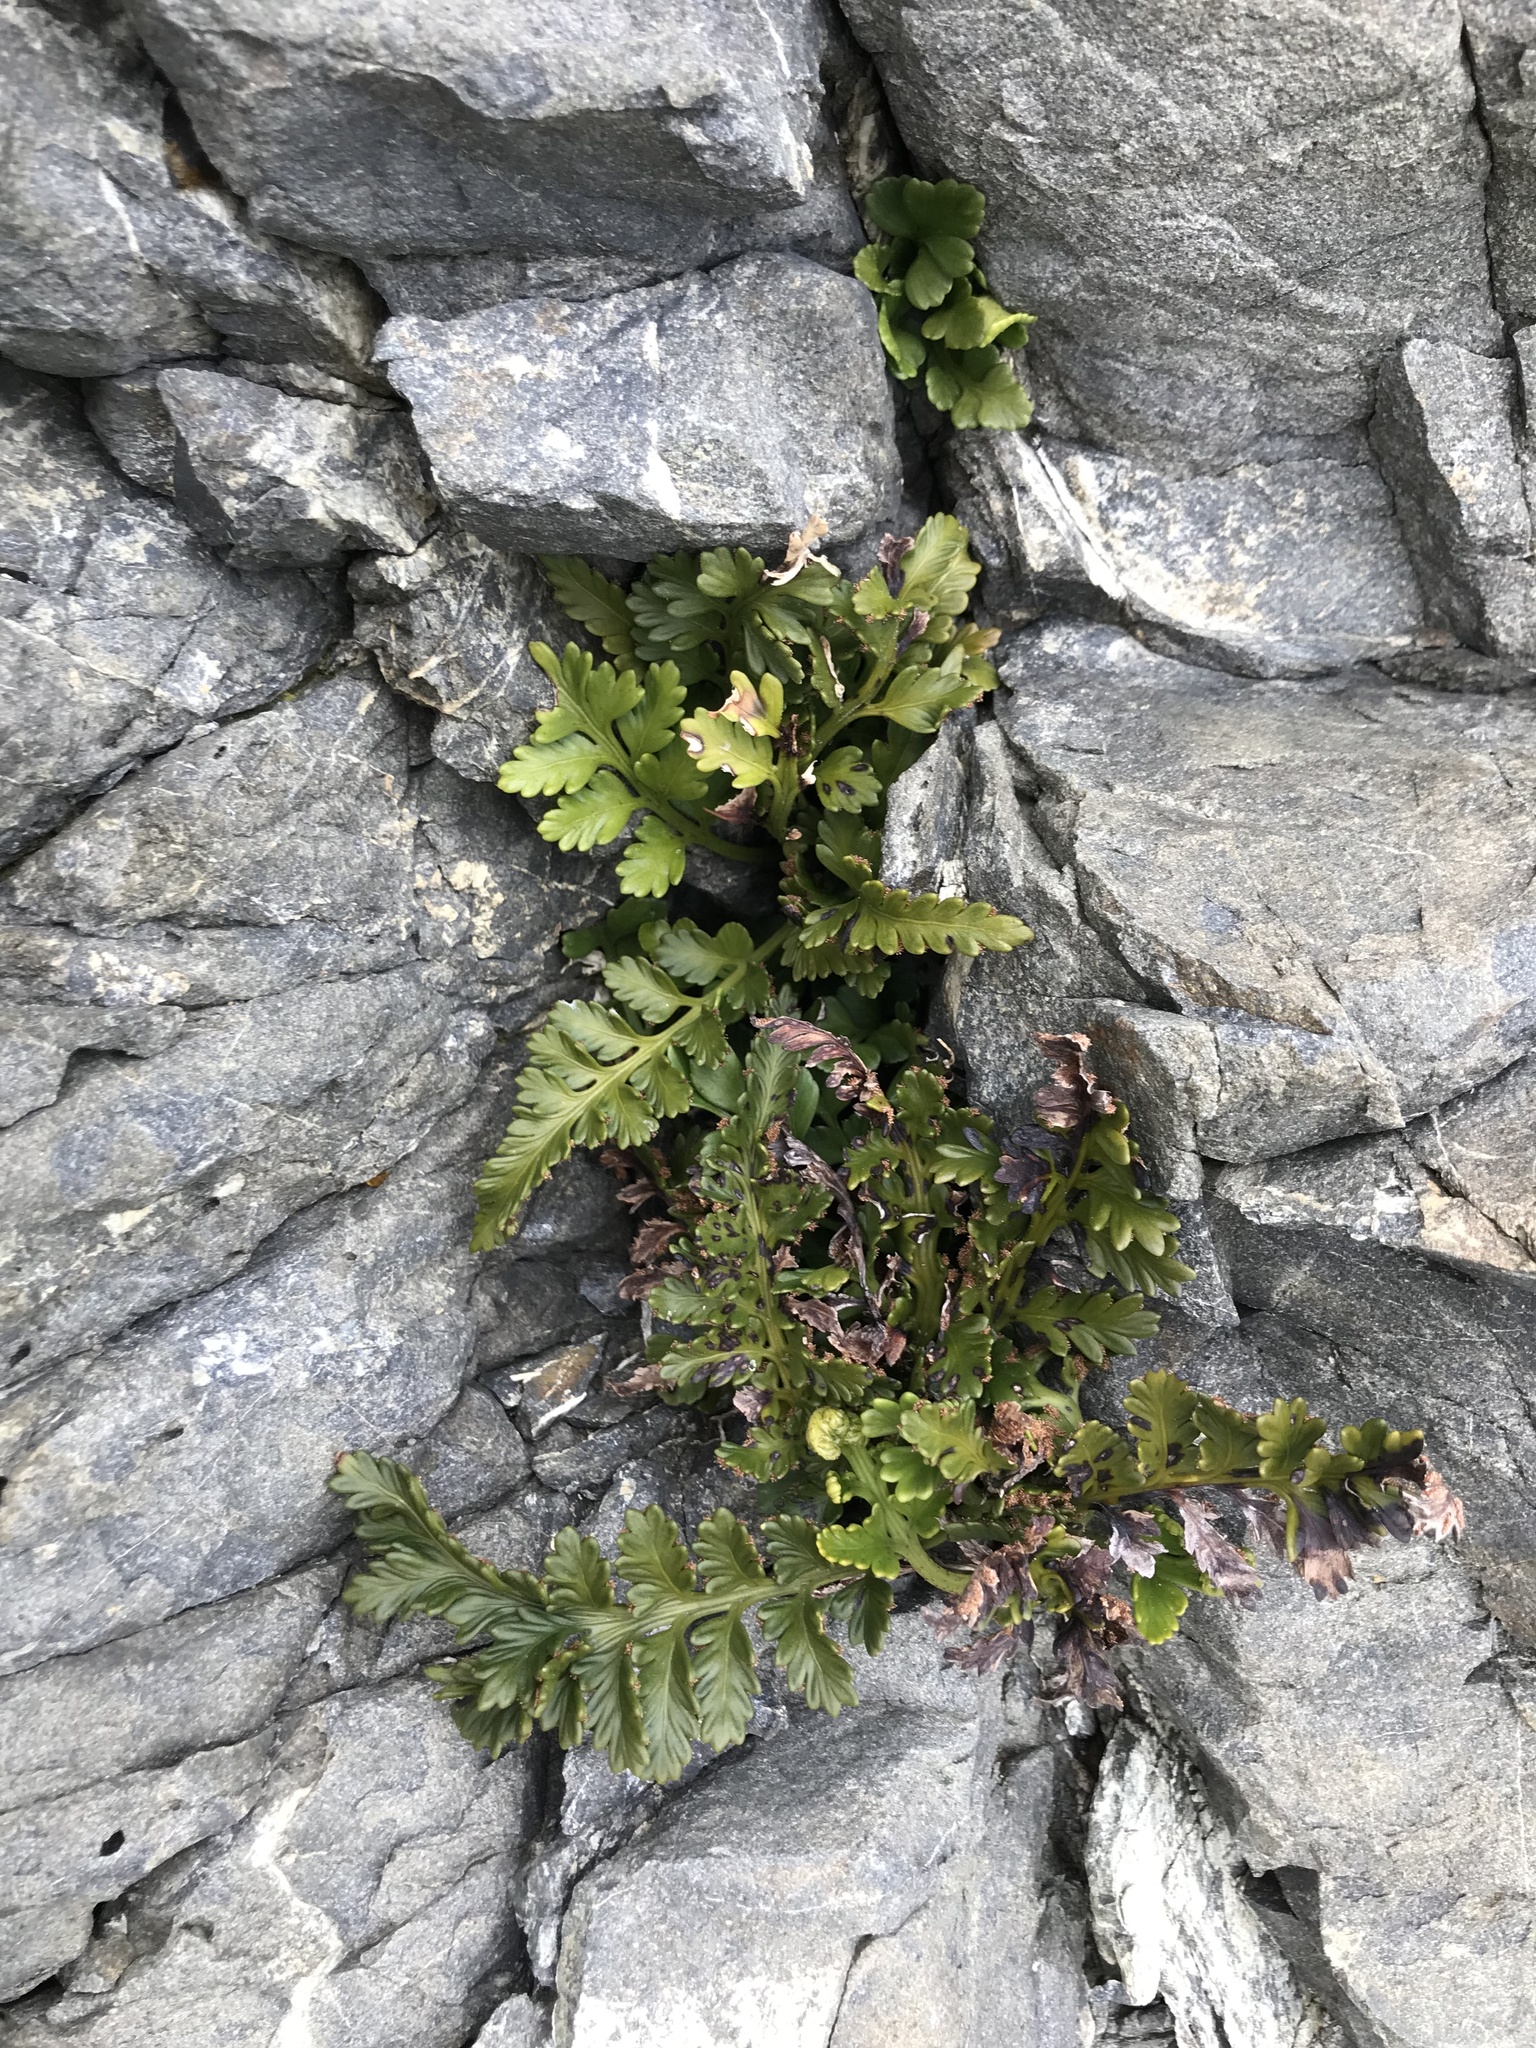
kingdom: Plantae
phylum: Tracheophyta
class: Polypodiopsida
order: Polypodiales
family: Aspleniaceae
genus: Asplenium
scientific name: Asplenium appendiculatum
